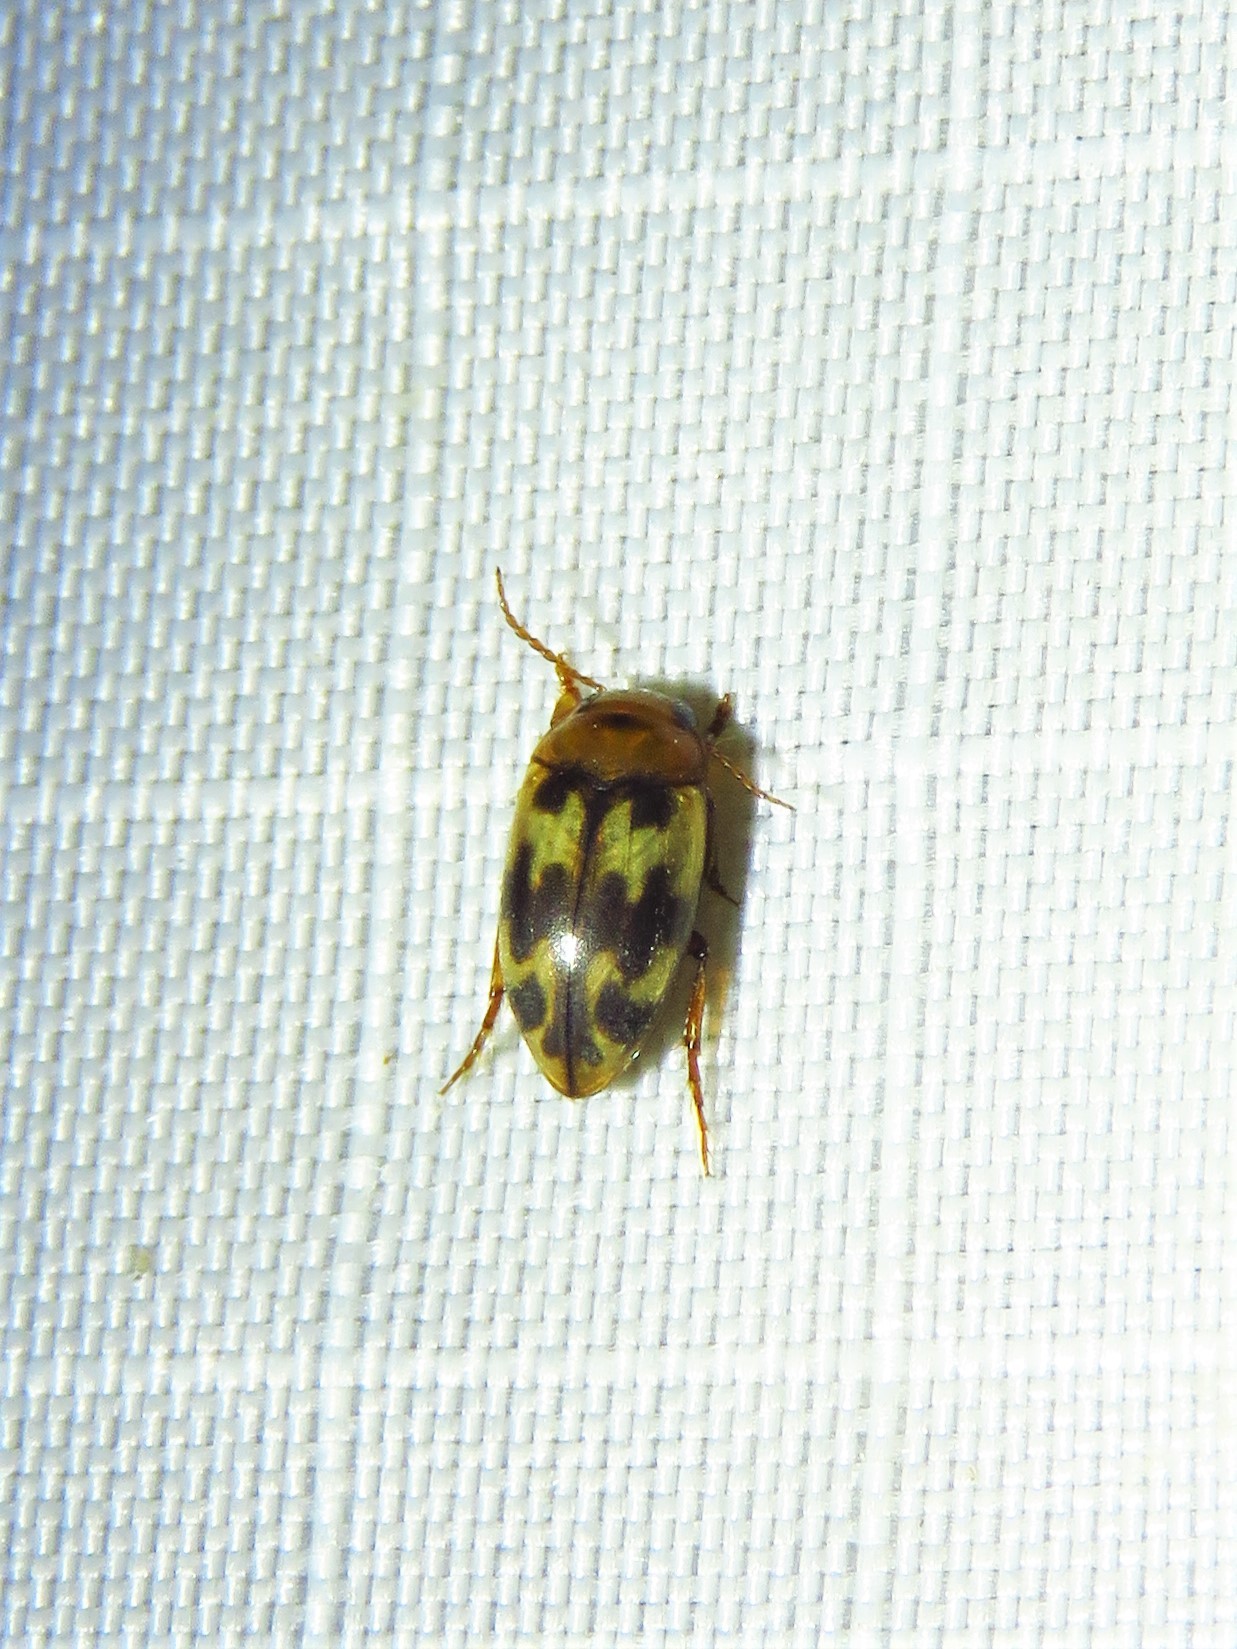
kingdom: Animalia
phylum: Arthropoda
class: Insecta
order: Coleoptera
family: Dytiscidae
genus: Heterosternuta
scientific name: Heterosternuta diversicornis
